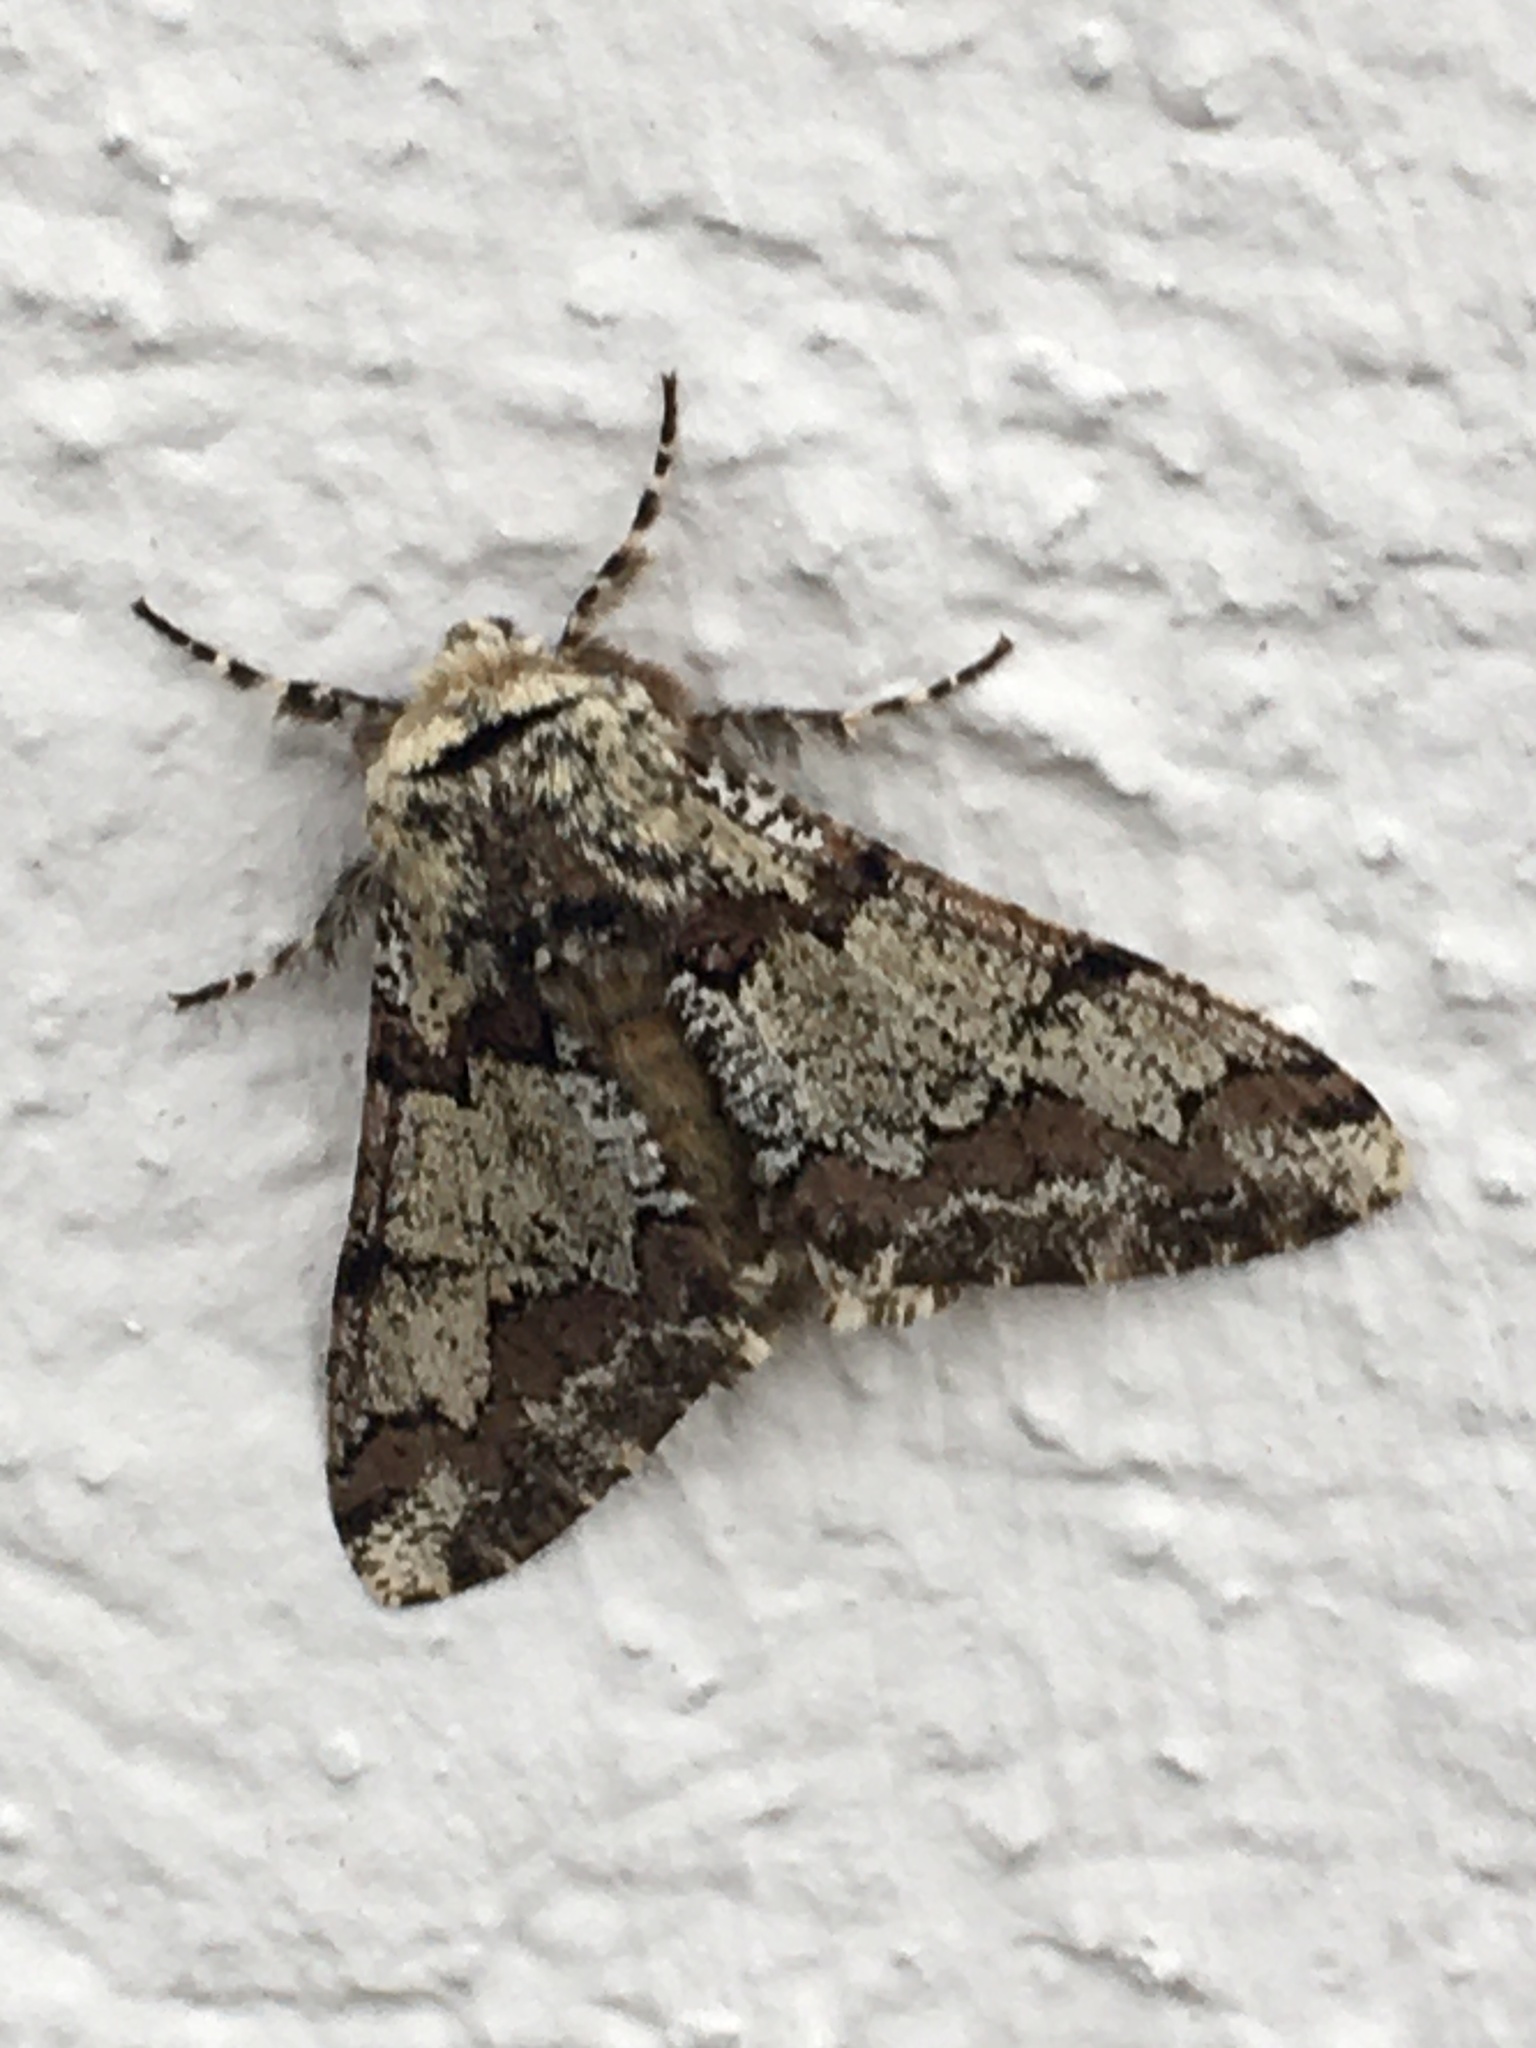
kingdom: Animalia
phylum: Arthropoda
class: Insecta
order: Lepidoptera
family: Geometridae
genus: Biston
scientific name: Biston strataria
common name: Oak beauty
